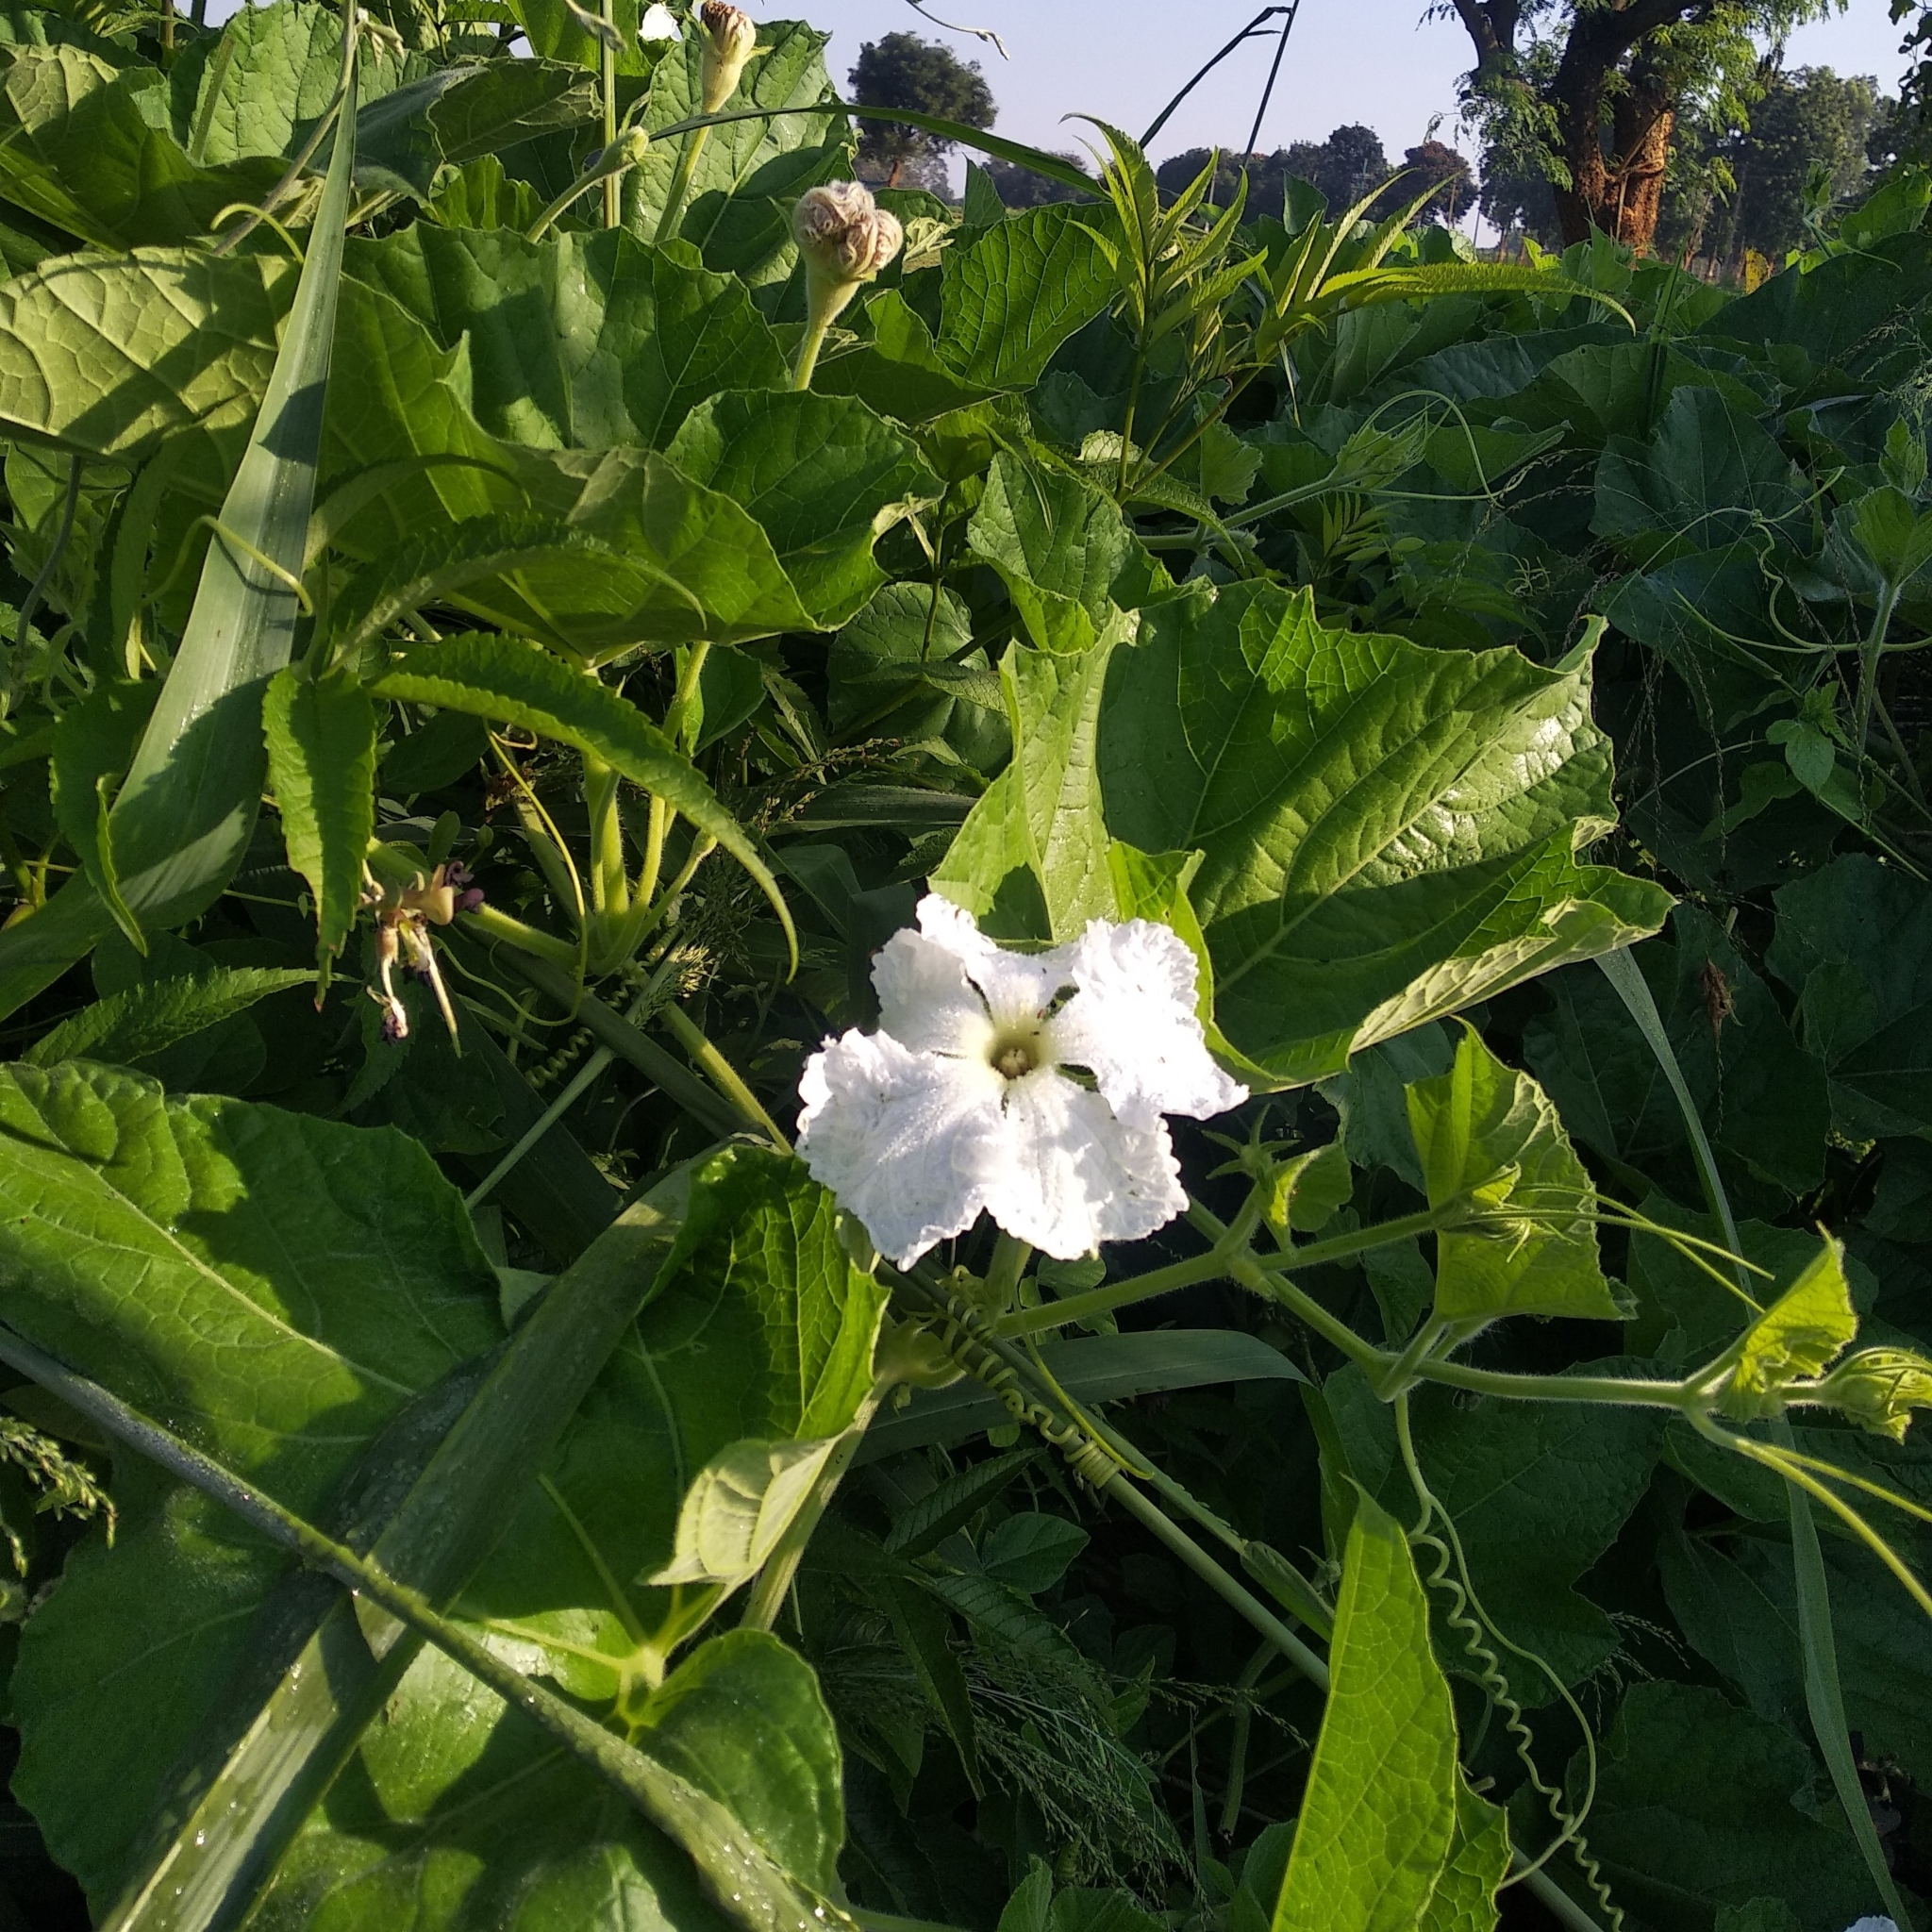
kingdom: Plantae
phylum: Tracheophyta
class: Magnoliopsida
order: Cucurbitales
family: Cucurbitaceae
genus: Lagenaria
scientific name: Lagenaria siceraria
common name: Bottle gourd
